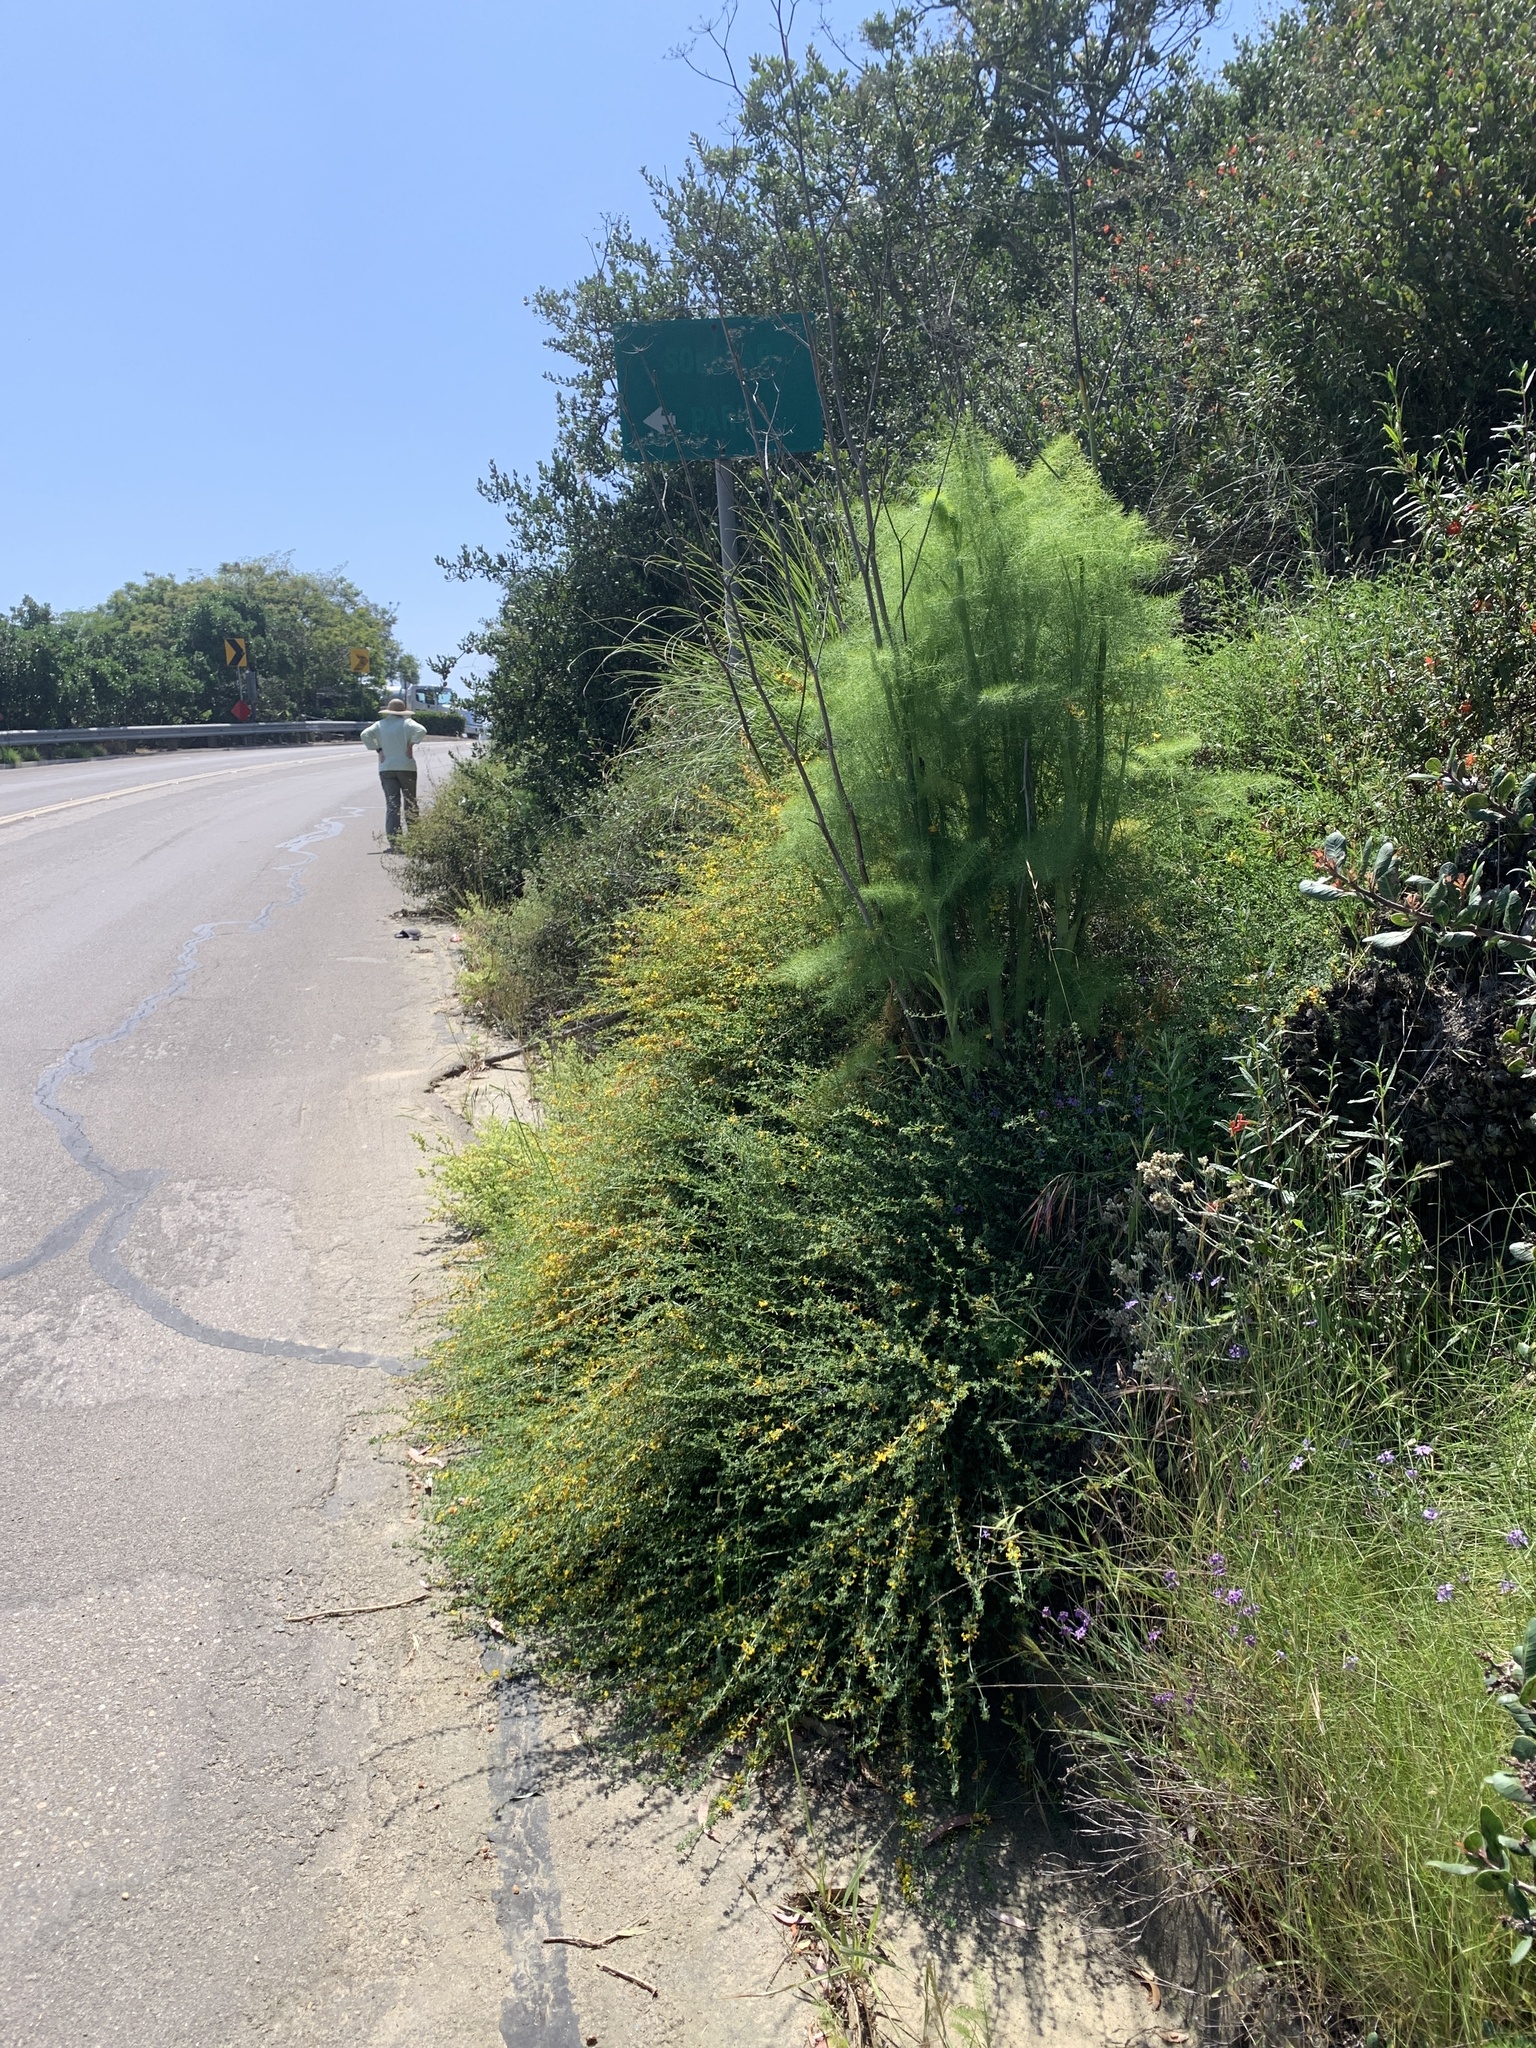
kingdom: Plantae
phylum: Tracheophyta
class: Magnoliopsida
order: Fabales
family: Fabaceae
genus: Acmispon
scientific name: Acmispon glaber
